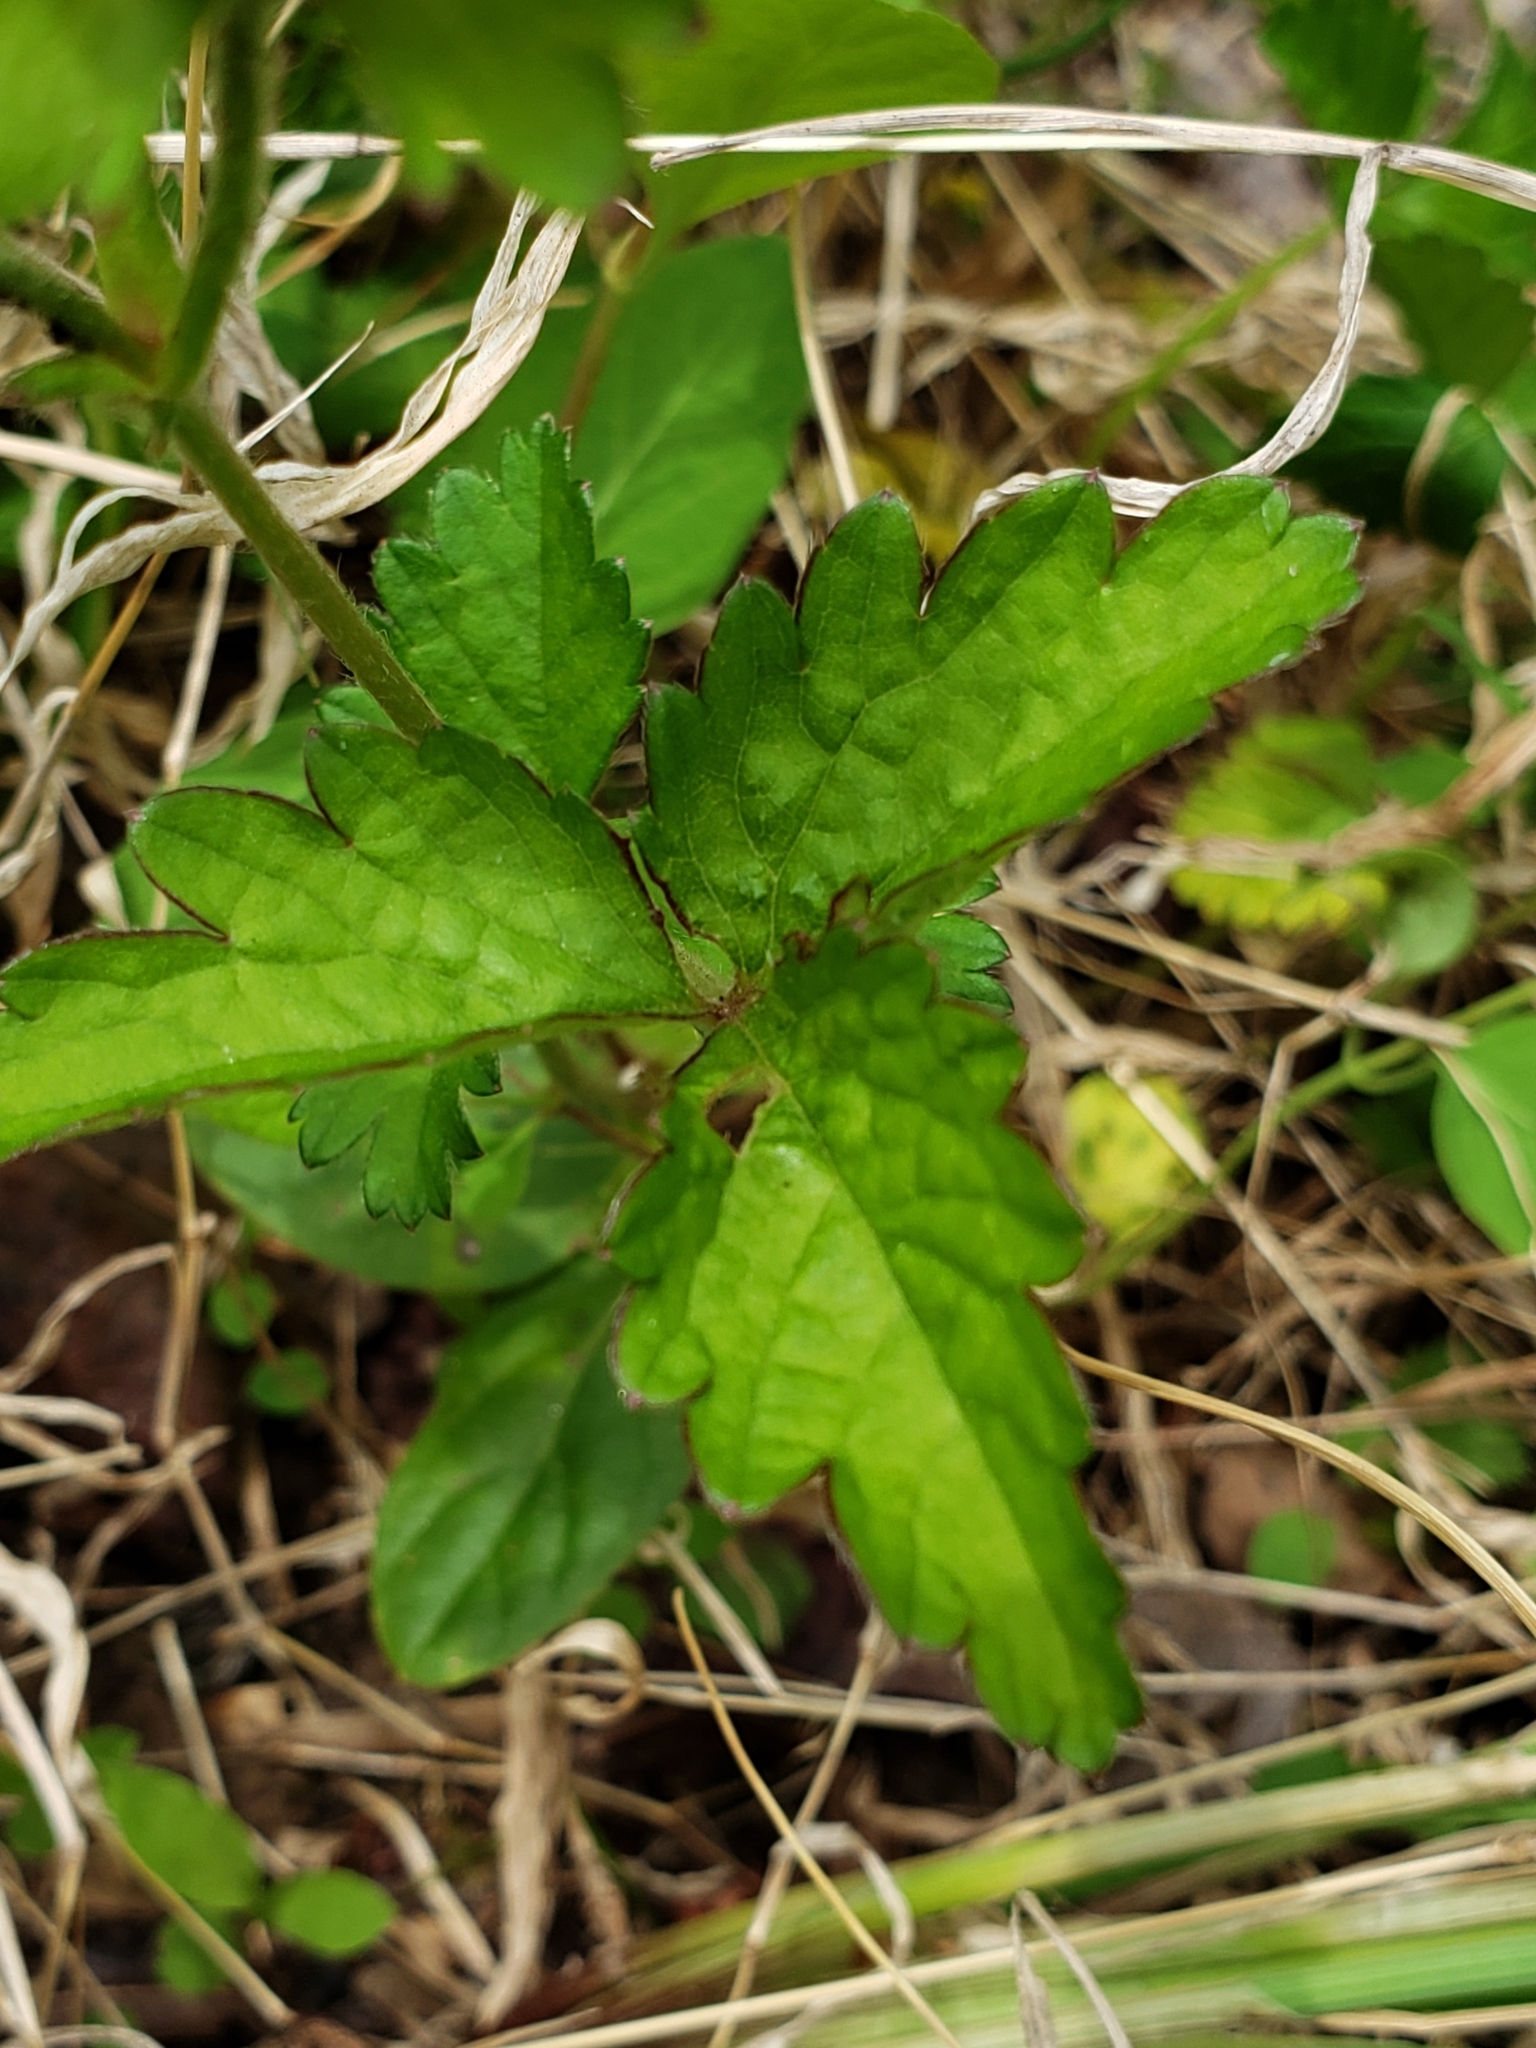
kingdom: Plantae
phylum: Tracheophyta
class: Magnoliopsida
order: Rosales
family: Rosaceae
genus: Potentilla
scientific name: Potentilla indica
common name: Yellow-flowered strawberry
